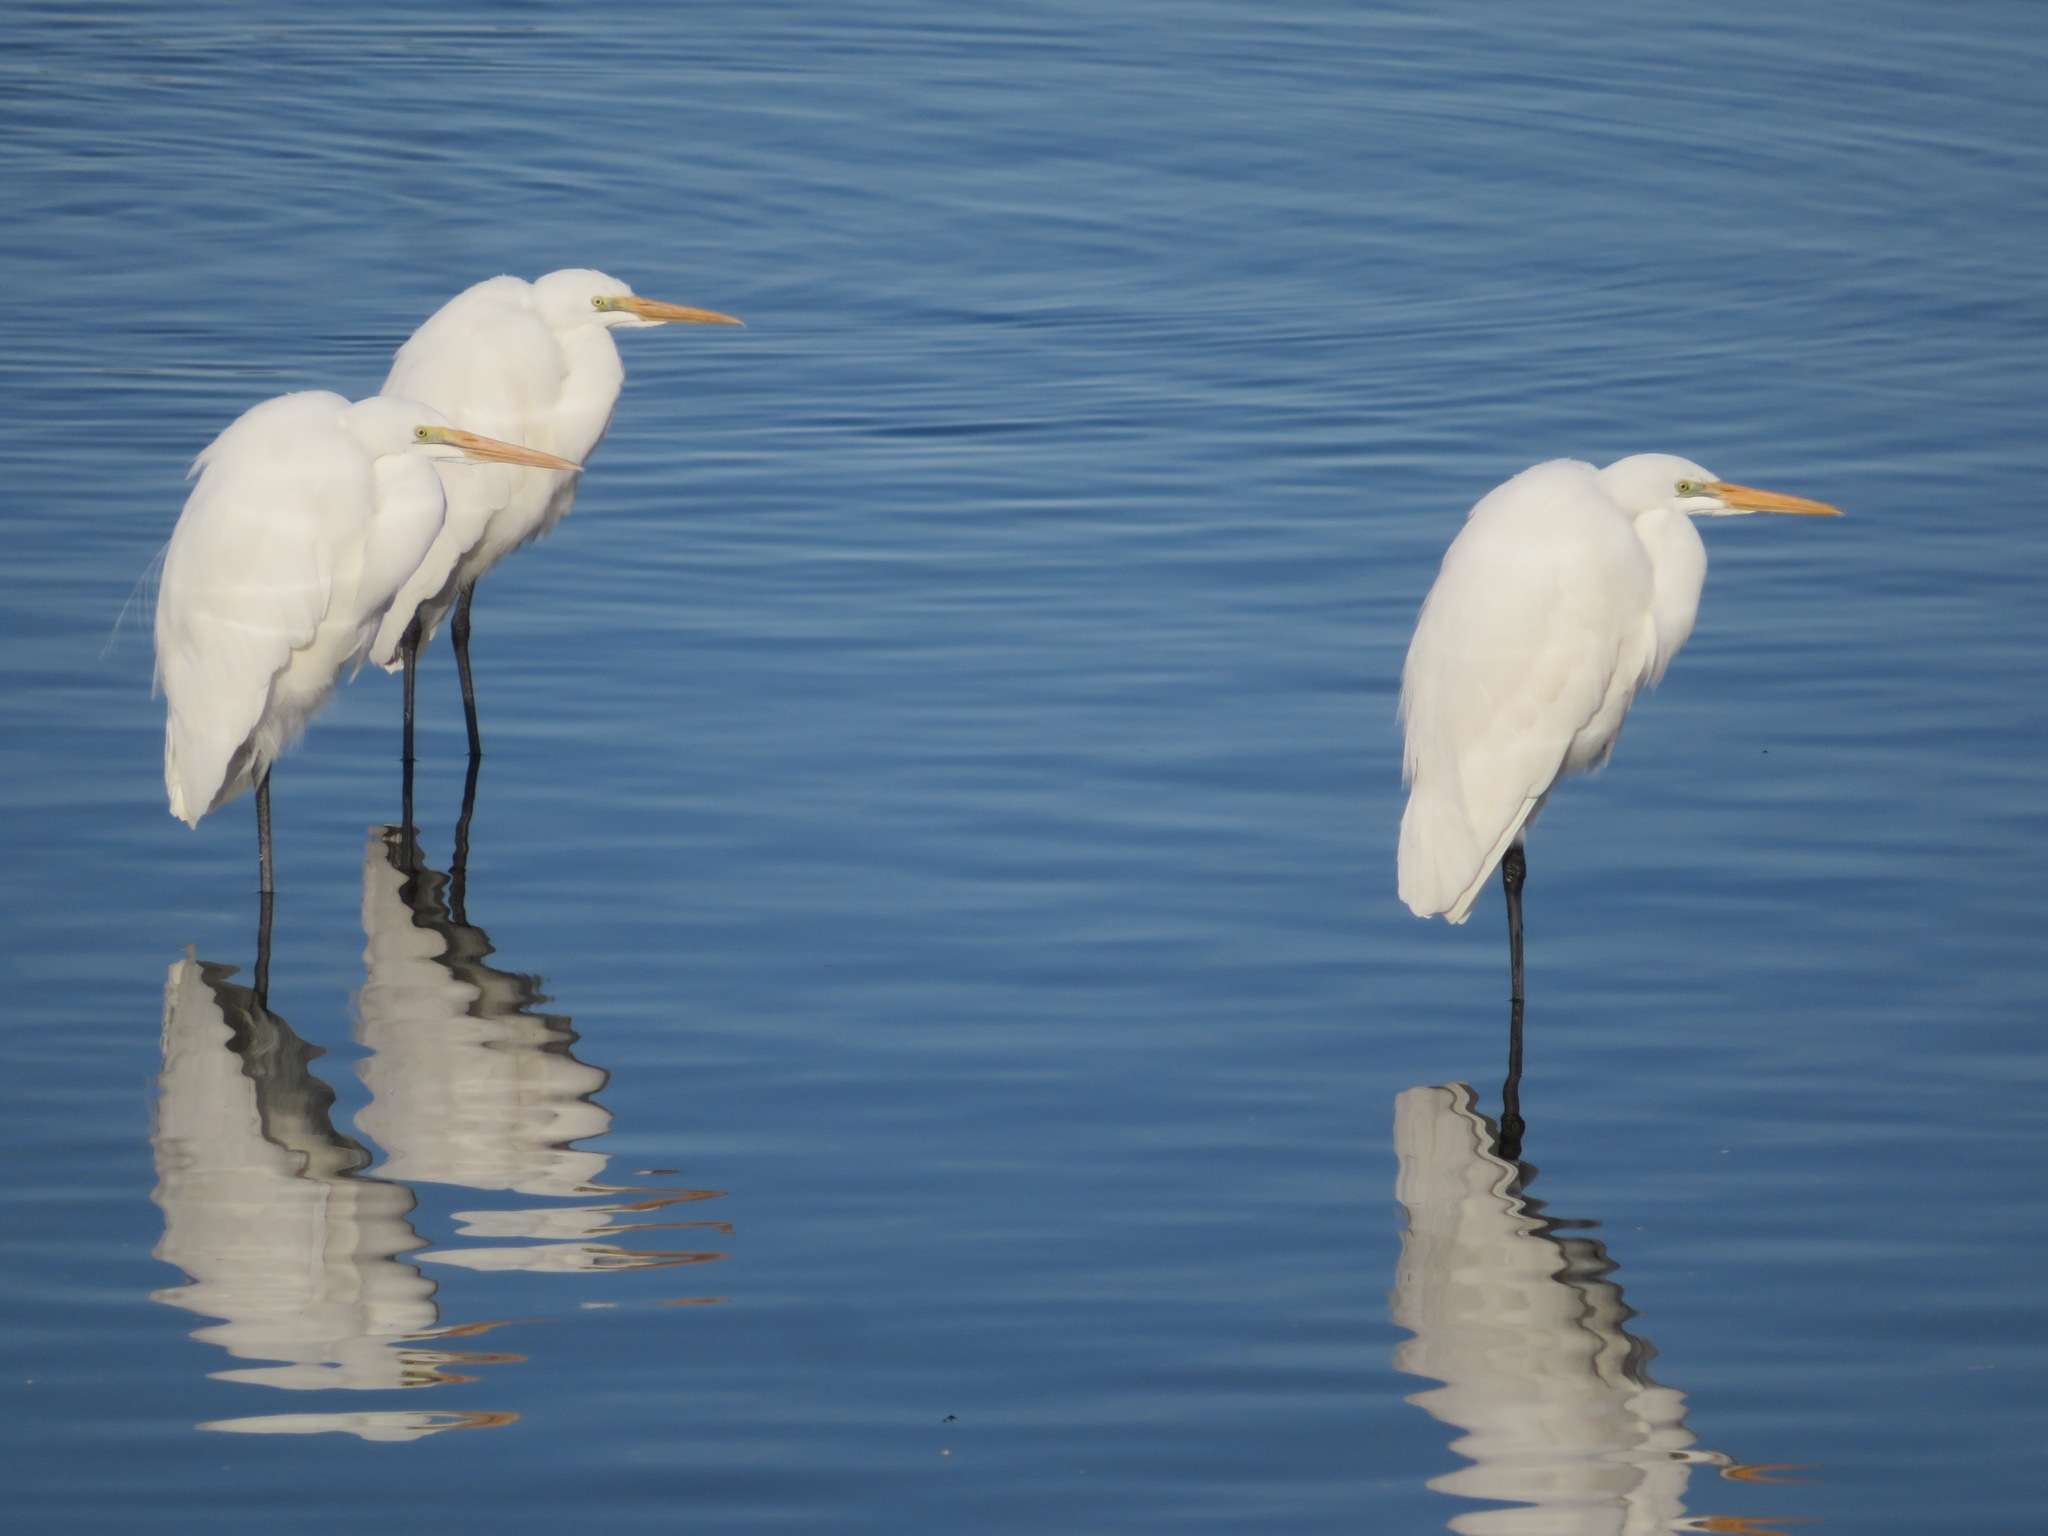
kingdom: Animalia
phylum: Chordata
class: Aves
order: Pelecaniformes
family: Ardeidae
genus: Ardea
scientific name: Ardea alba
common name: Great egret
